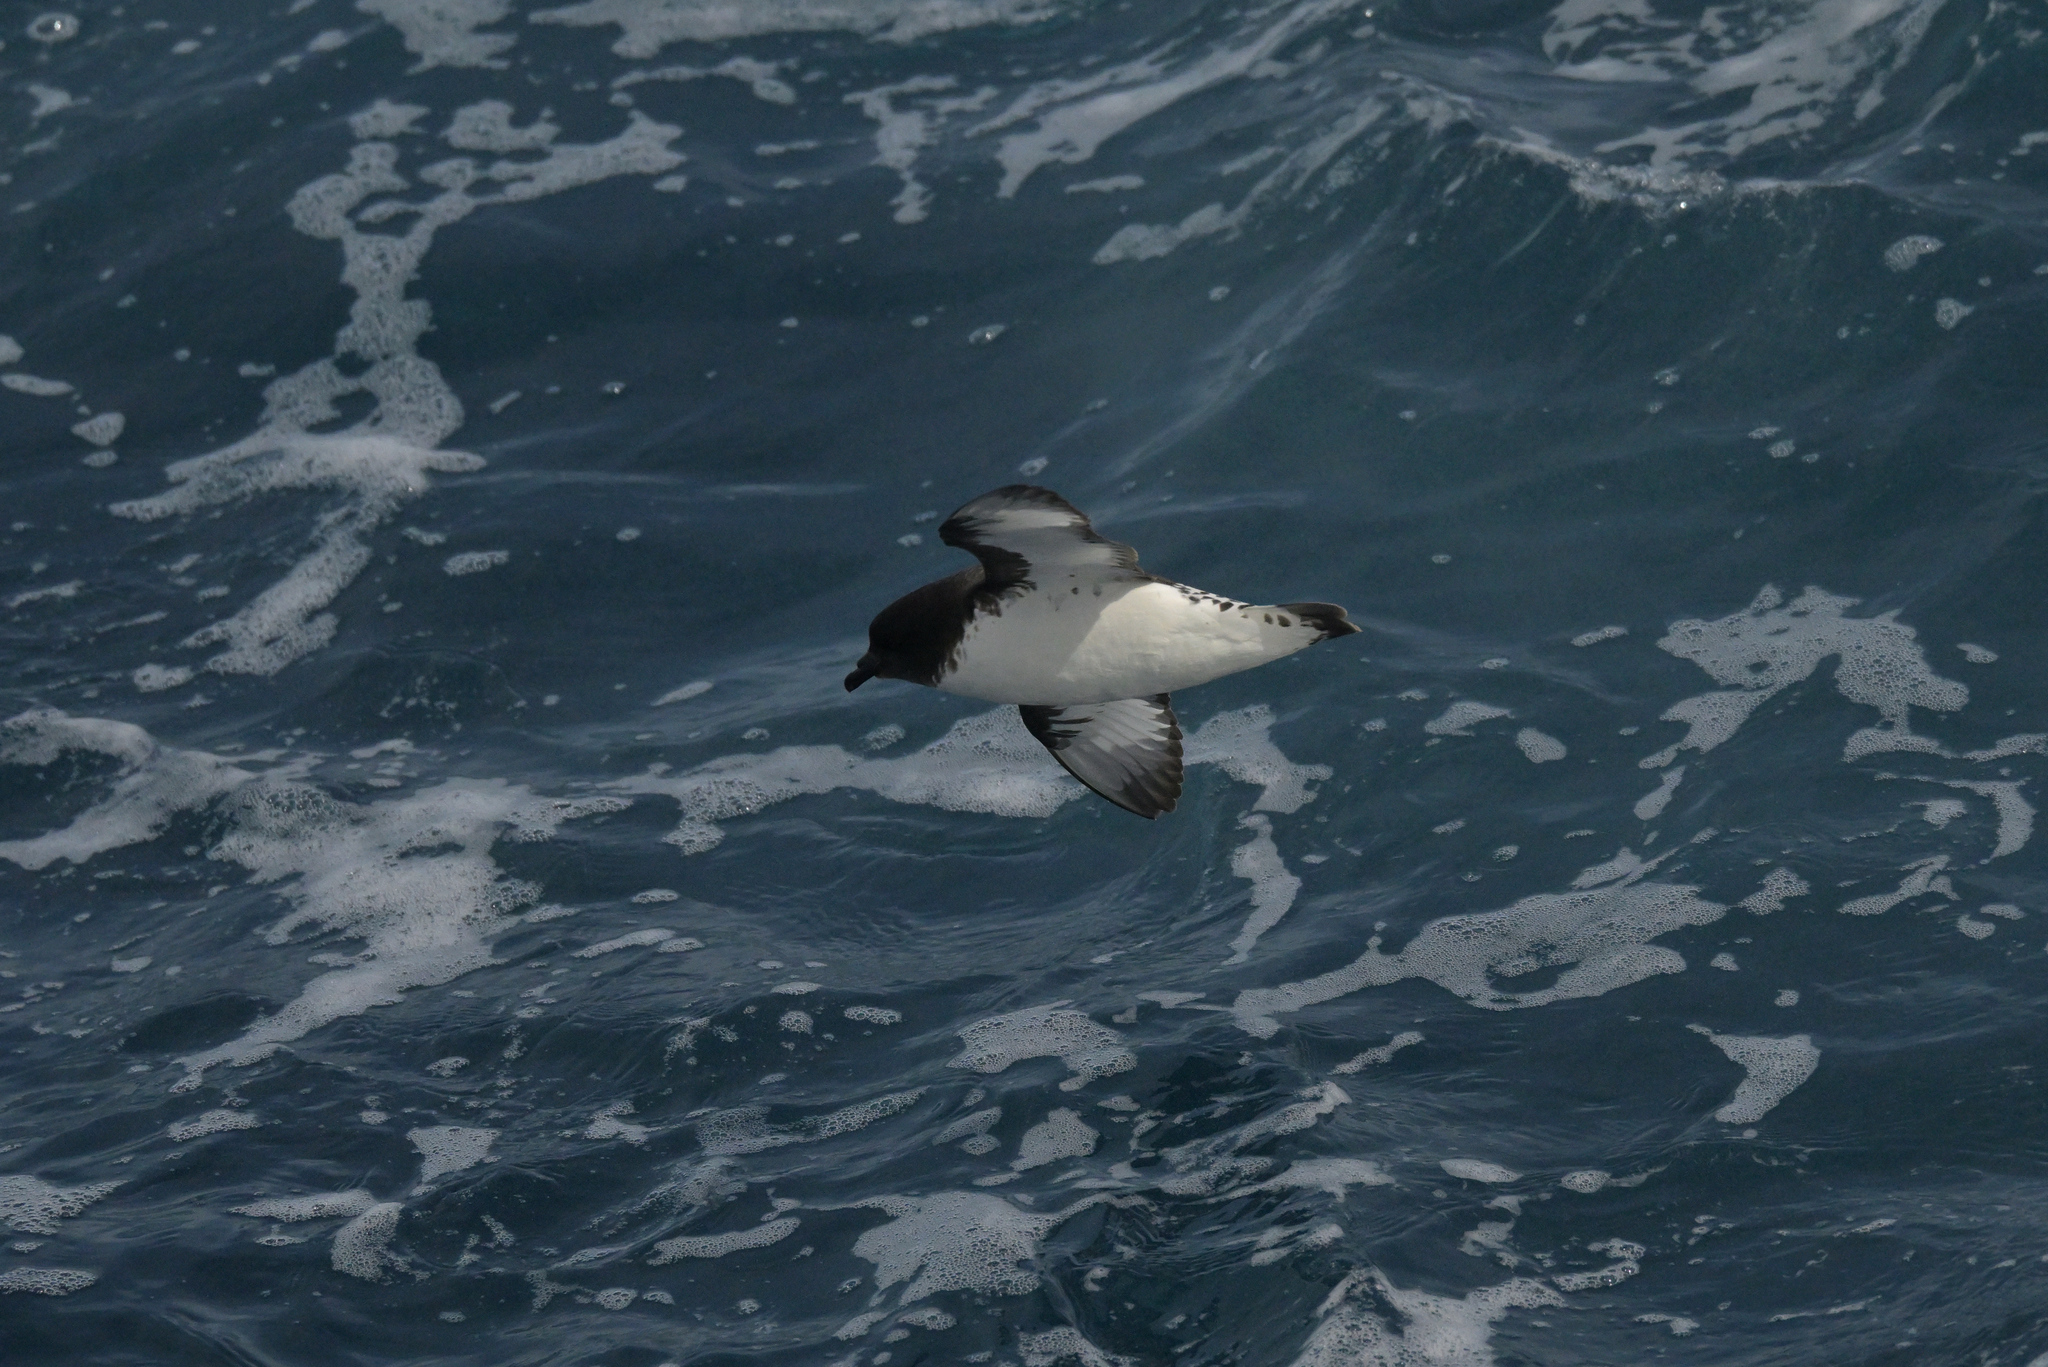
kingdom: Animalia
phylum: Chordata
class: Aves
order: Procellariiformes
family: Procellariidae
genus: Daption
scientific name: Daption capense
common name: Cape petrel
